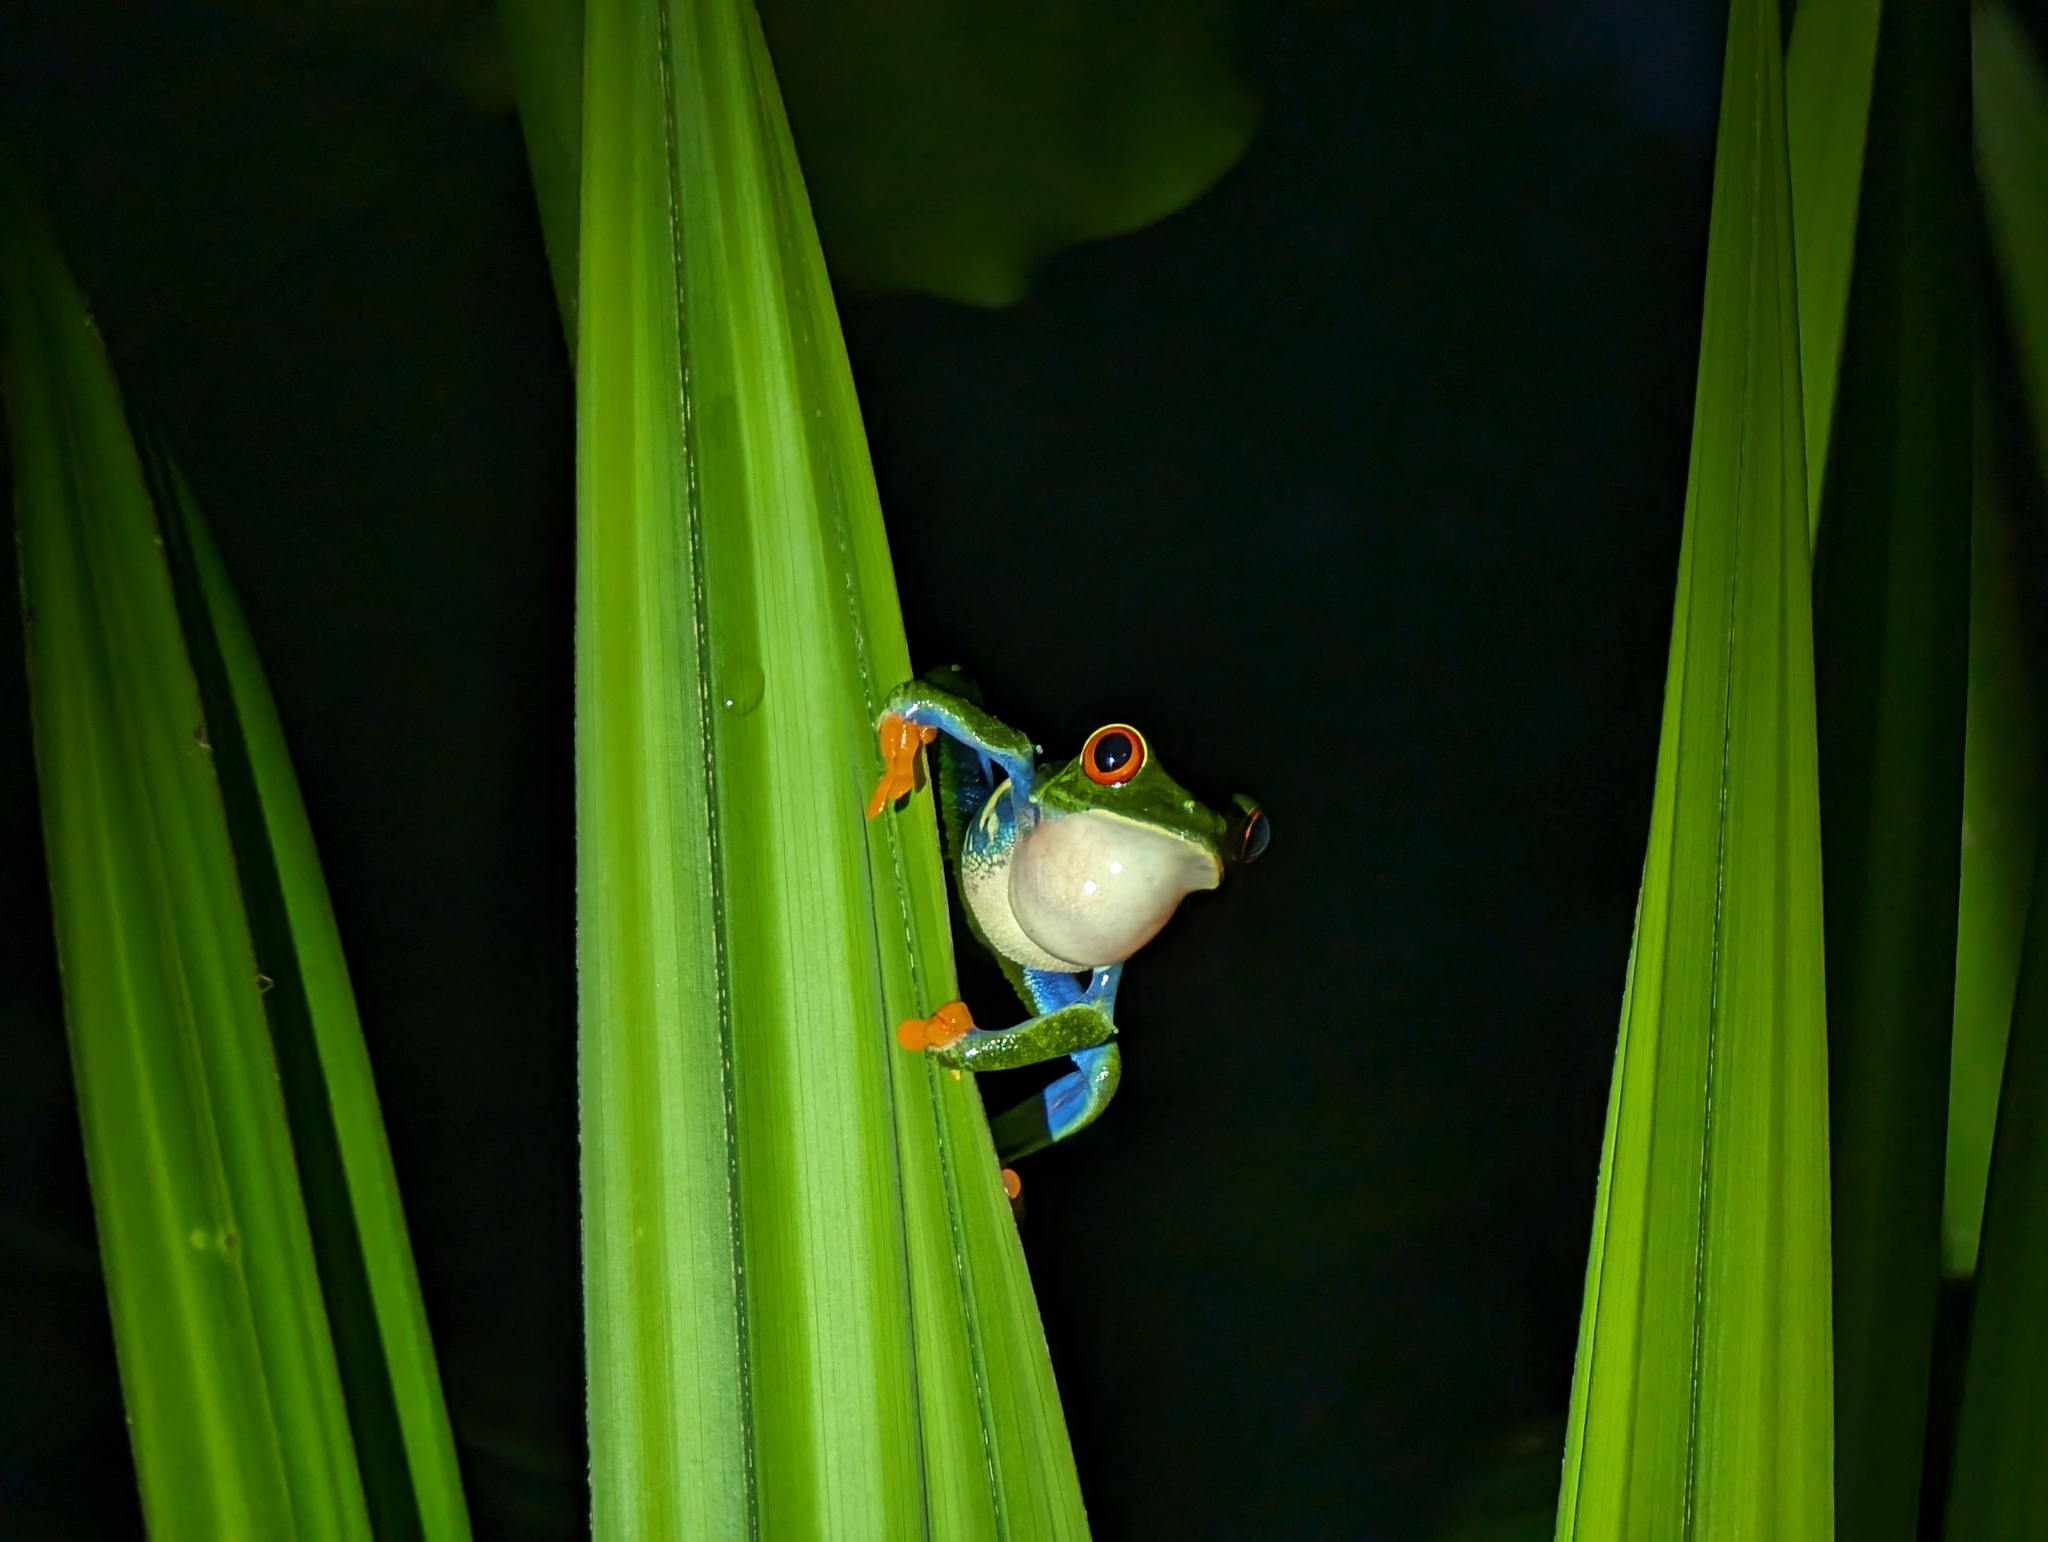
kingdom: Animalia
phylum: Chordata
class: Amphibia
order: Anura
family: Phyllomedusidae
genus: Agalychnis
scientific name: Agalychnis callidryas
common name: Red-eyed treefrog
